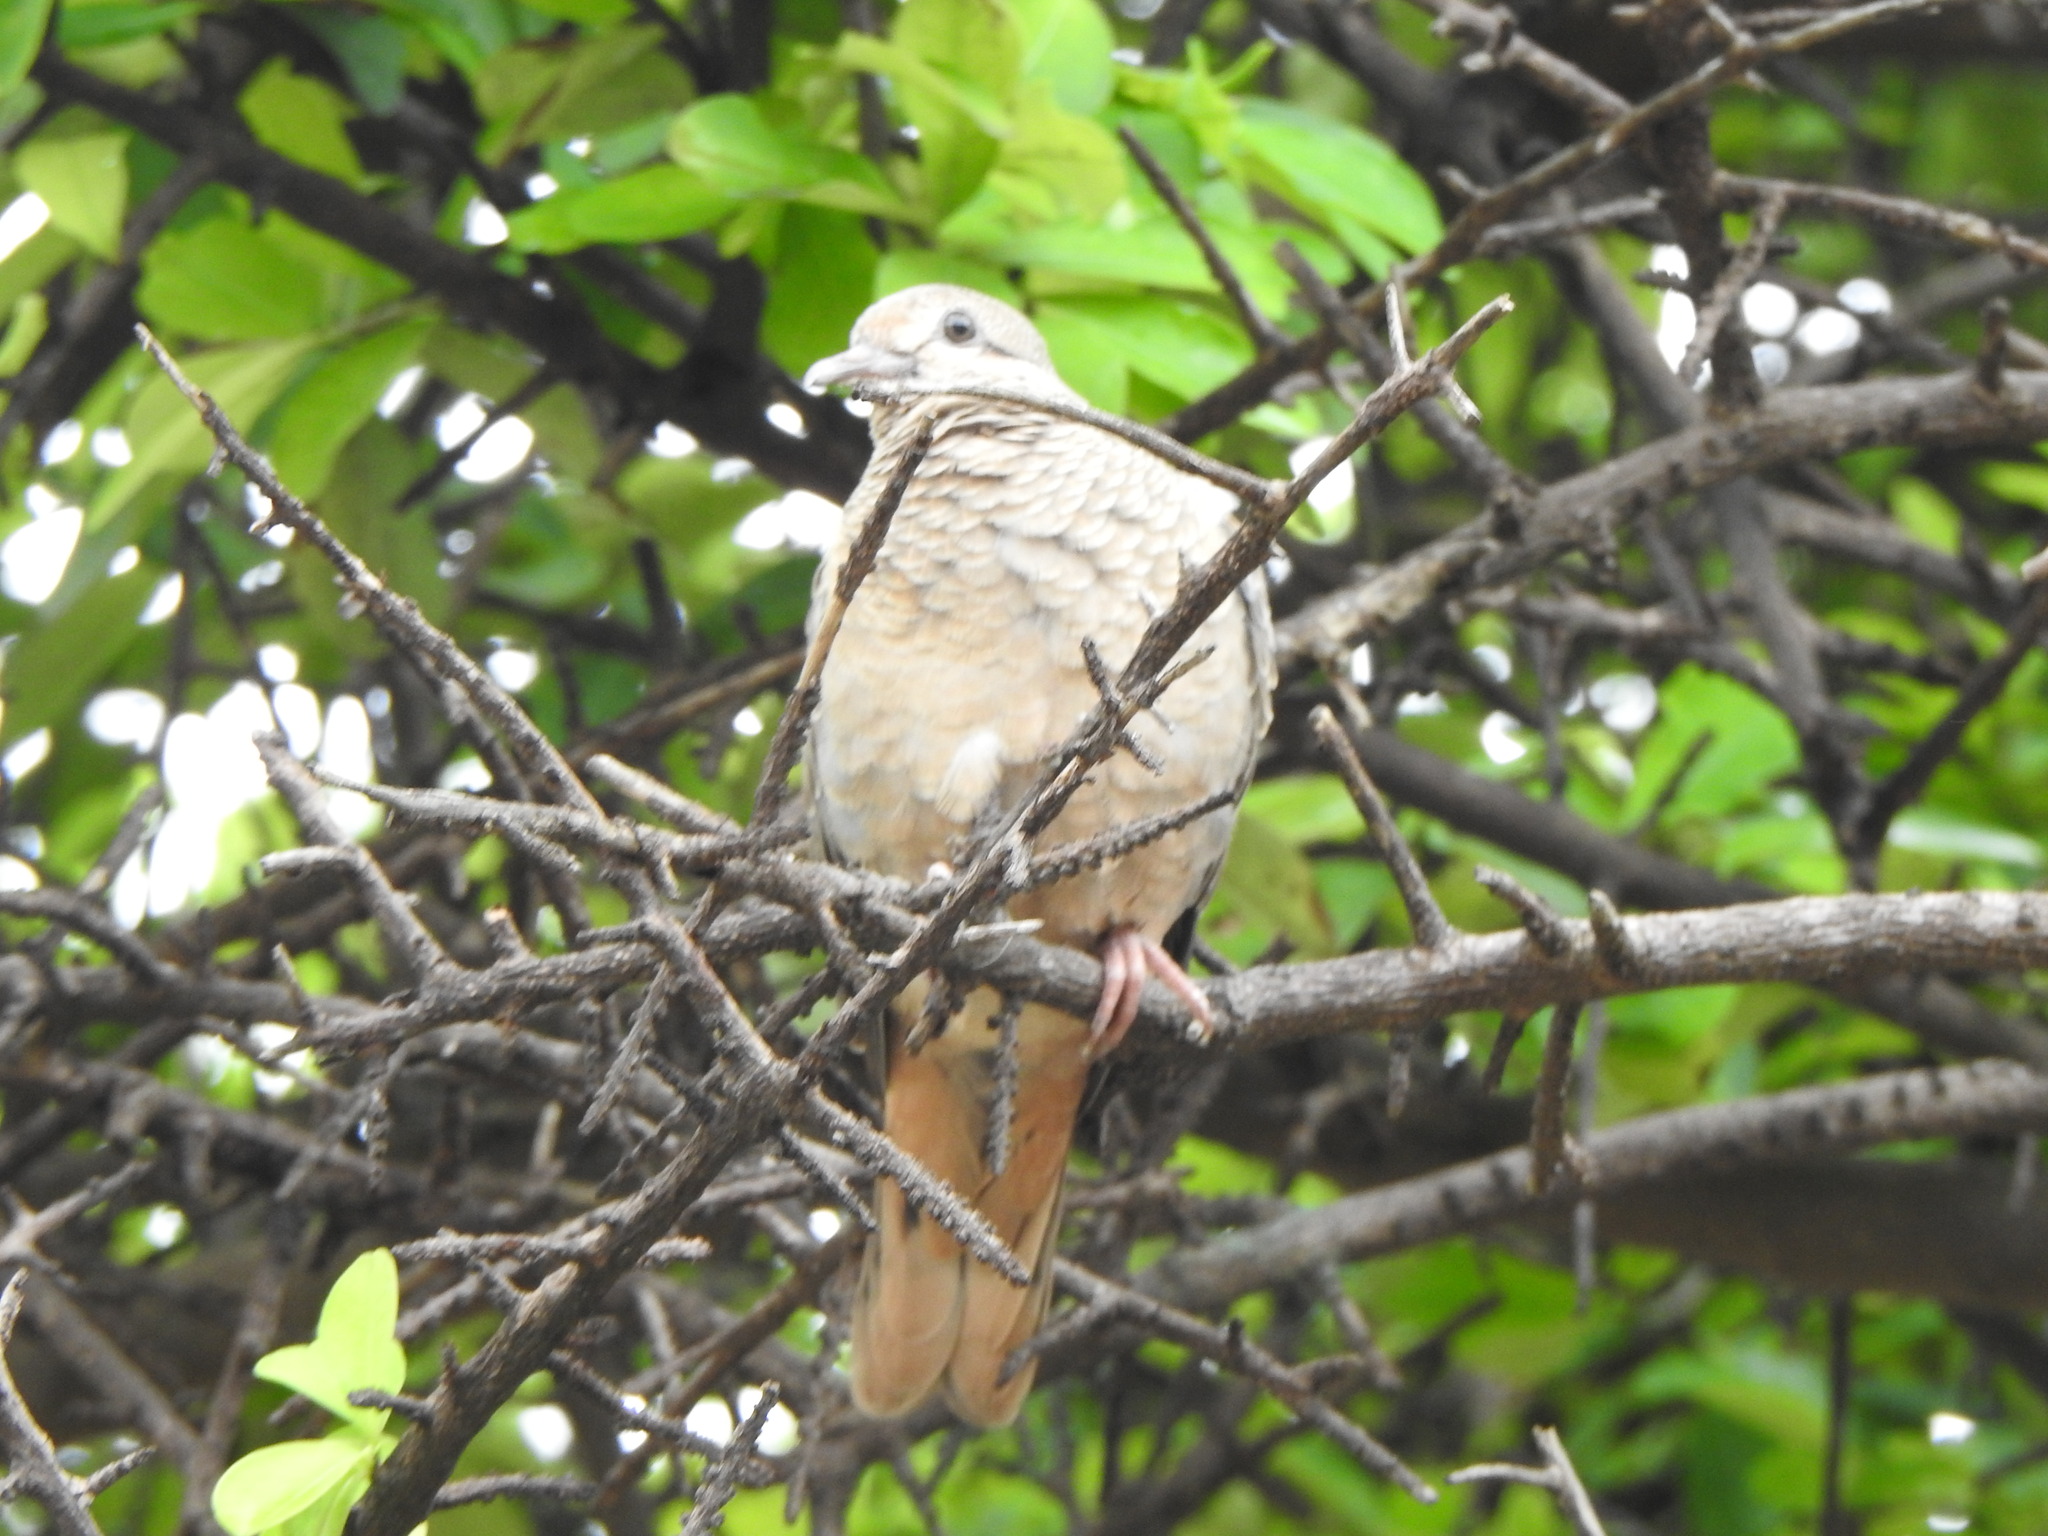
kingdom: Animalia
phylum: Chordata
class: Aves
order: Columbiformes
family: Columbidae
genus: Zenaida
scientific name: Zenaida auriculata
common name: Eared dove
